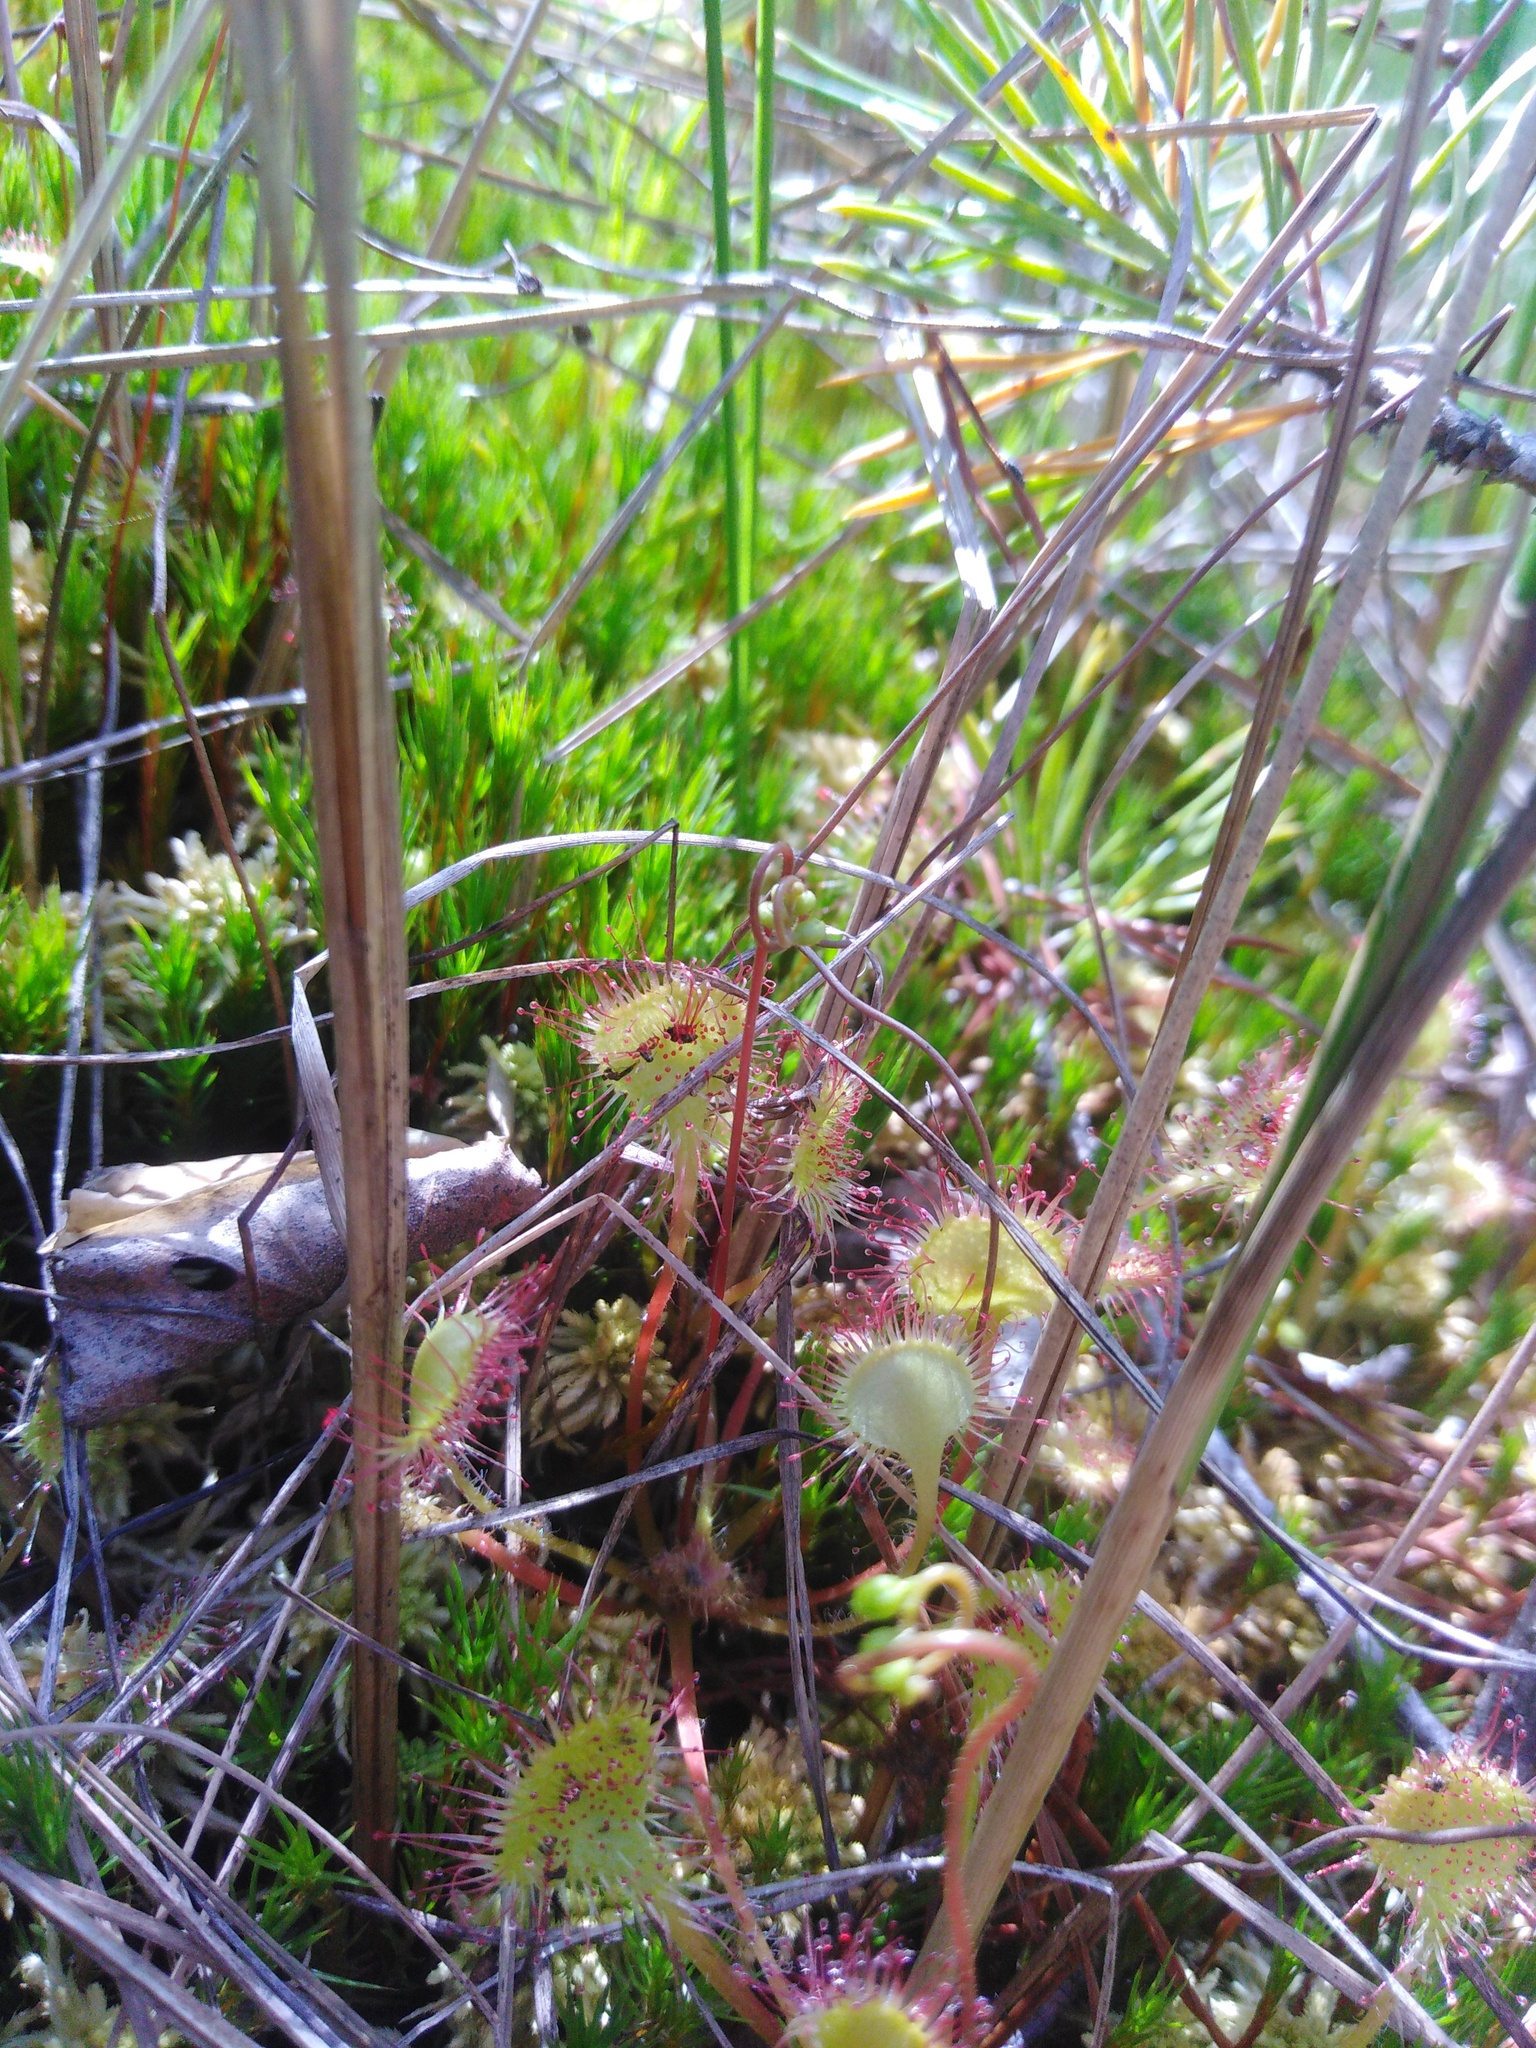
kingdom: Plantae
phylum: Tracheophyta
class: Magnoliopsida
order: Caryophyllales
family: Droseraceae
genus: Drosera
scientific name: Drosera rotundifolia
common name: Round-leaved sundew
